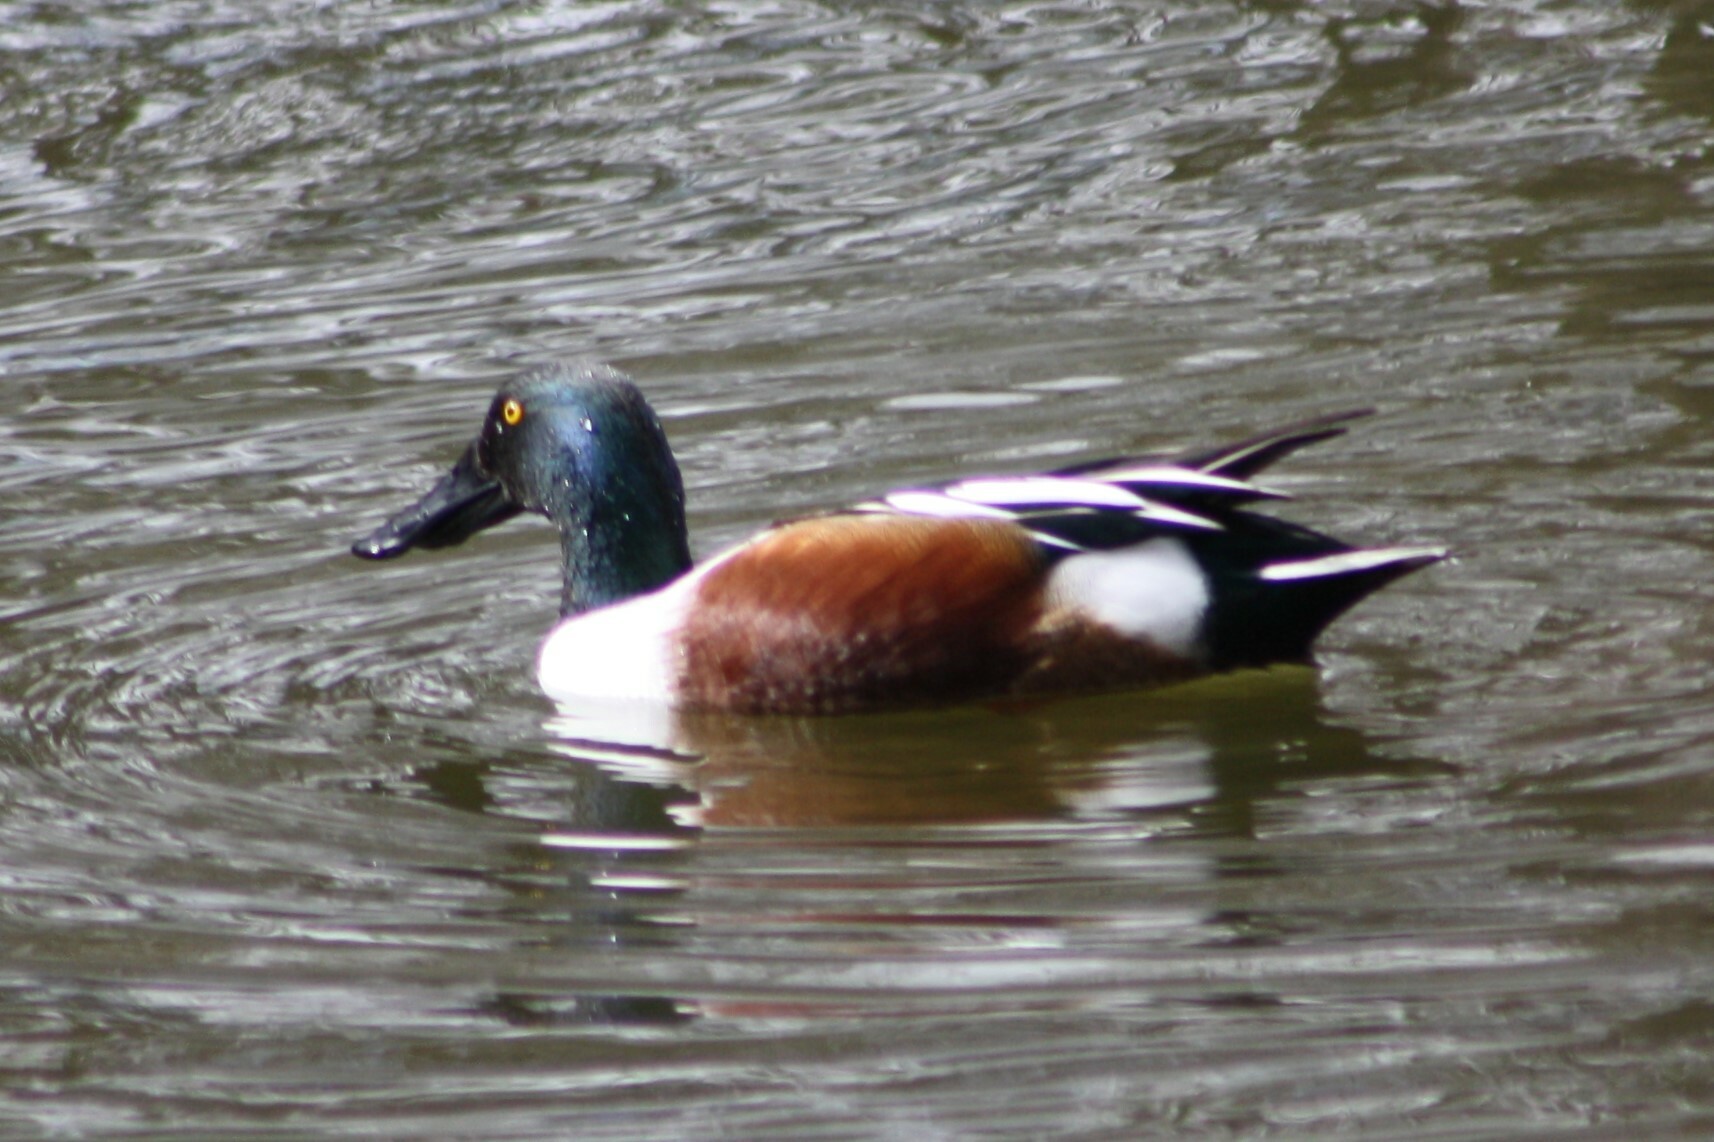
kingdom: Animalia
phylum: Chordata
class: Aves
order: Anseriformes
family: Anatidae
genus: Spatula
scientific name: Spatula clypeata
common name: Northern shoveler
